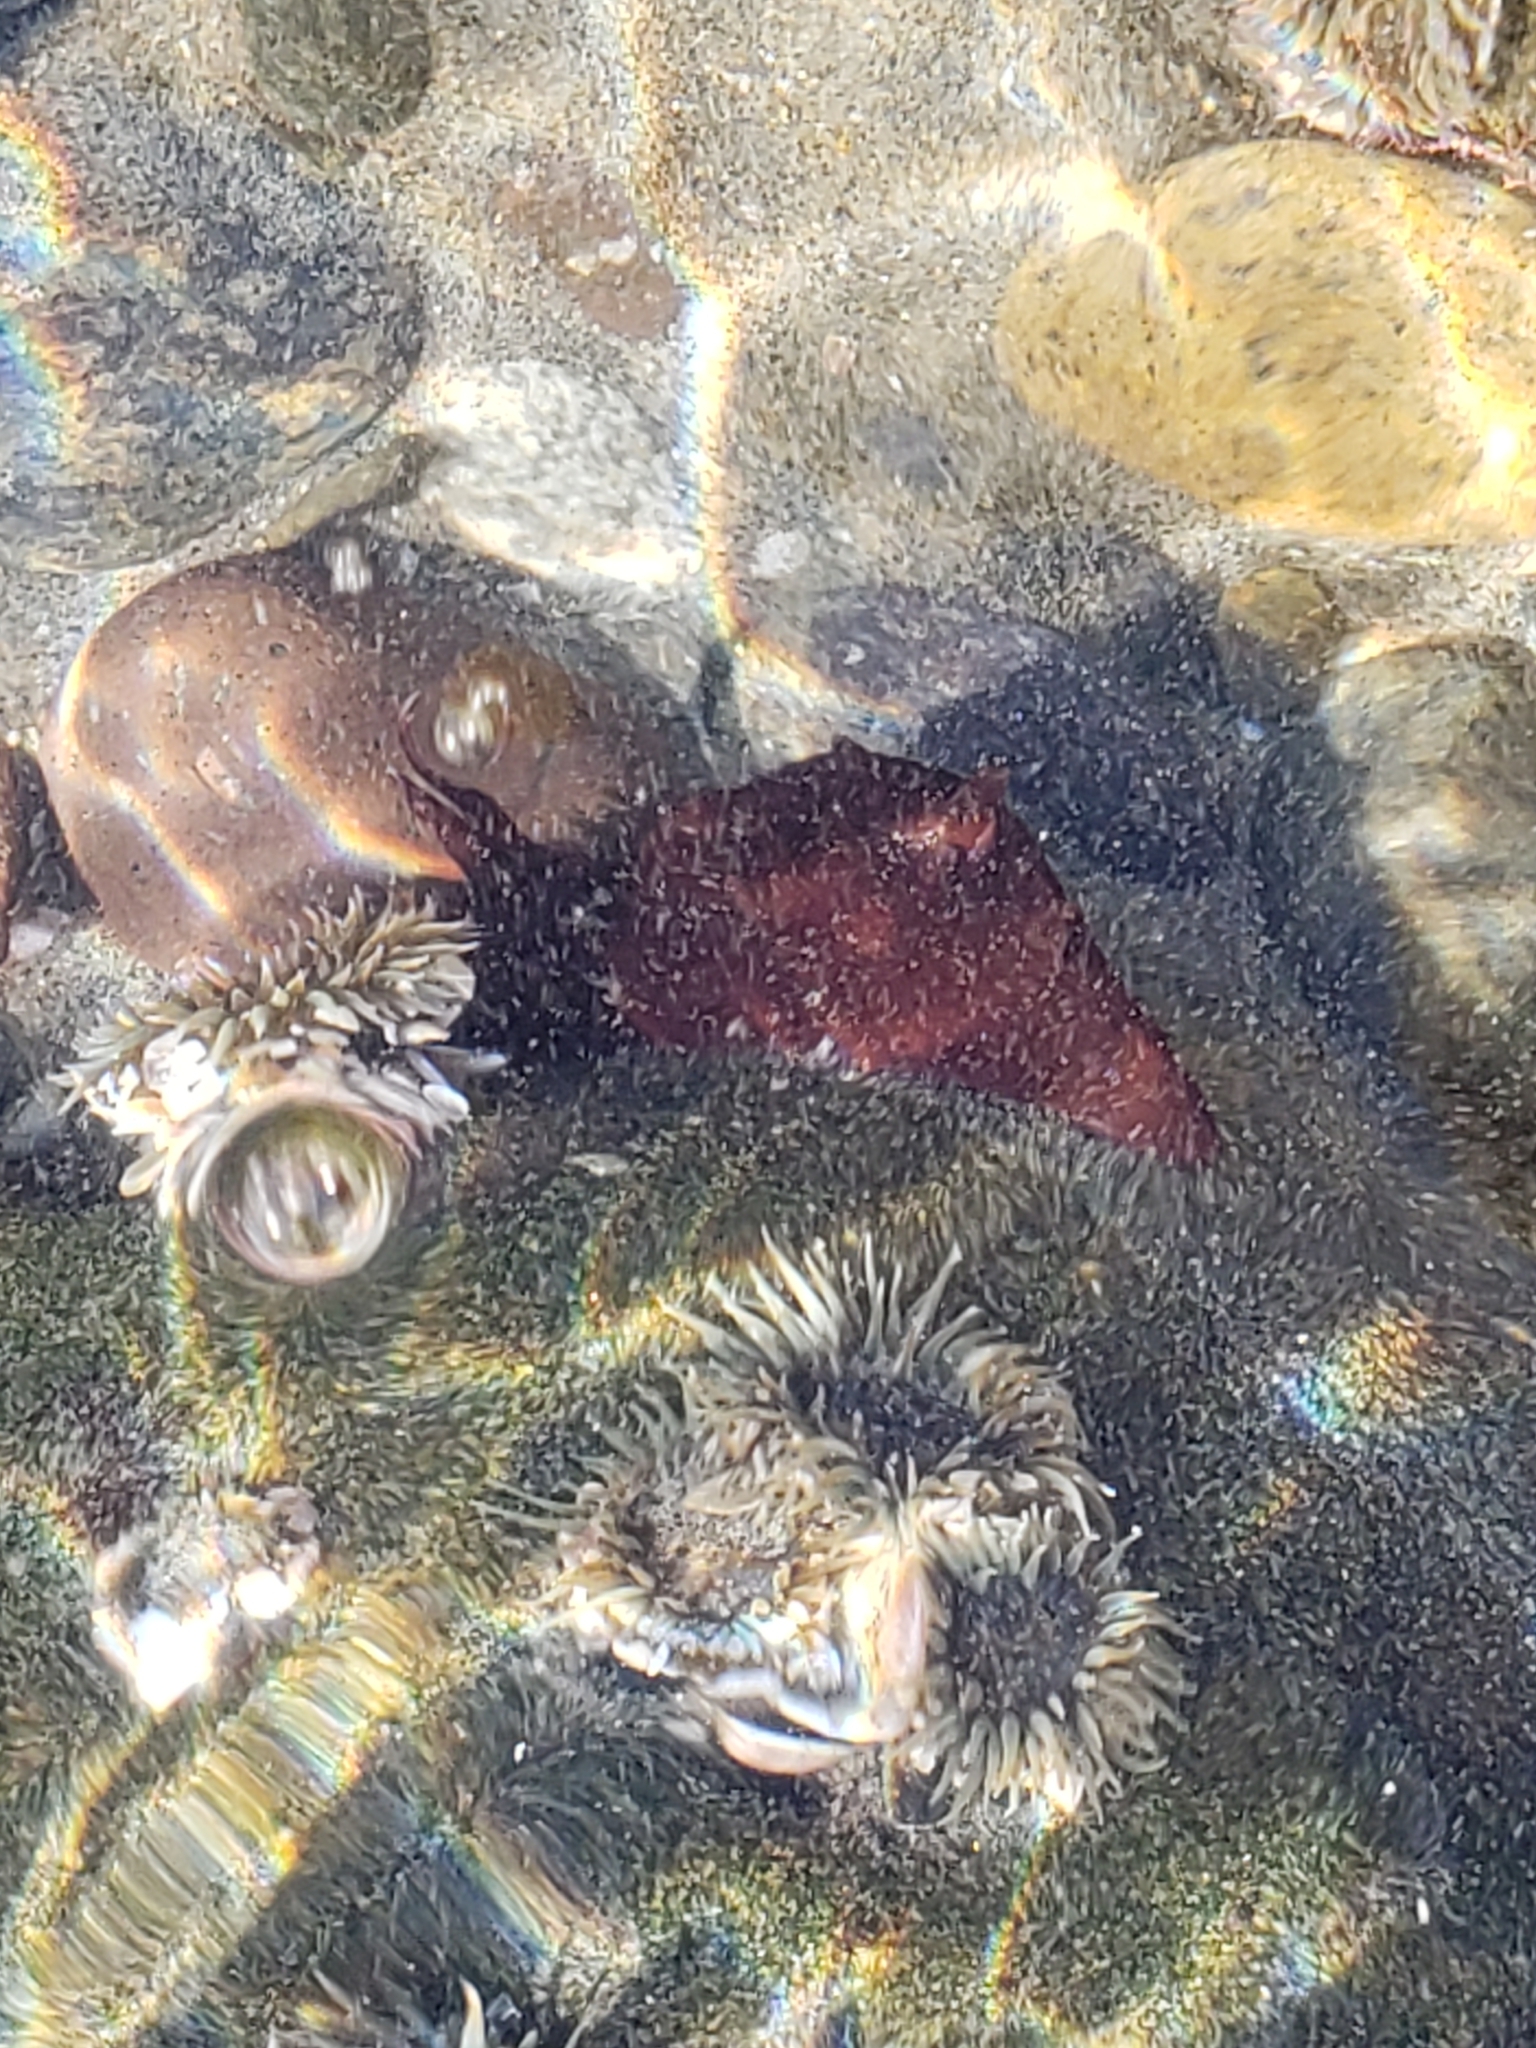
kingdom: Animalia
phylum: Mollusca
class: Gastropoda
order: Aplysiida
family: Aplysiidae
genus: Aplysia
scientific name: Aplysia californica
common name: California seahare
